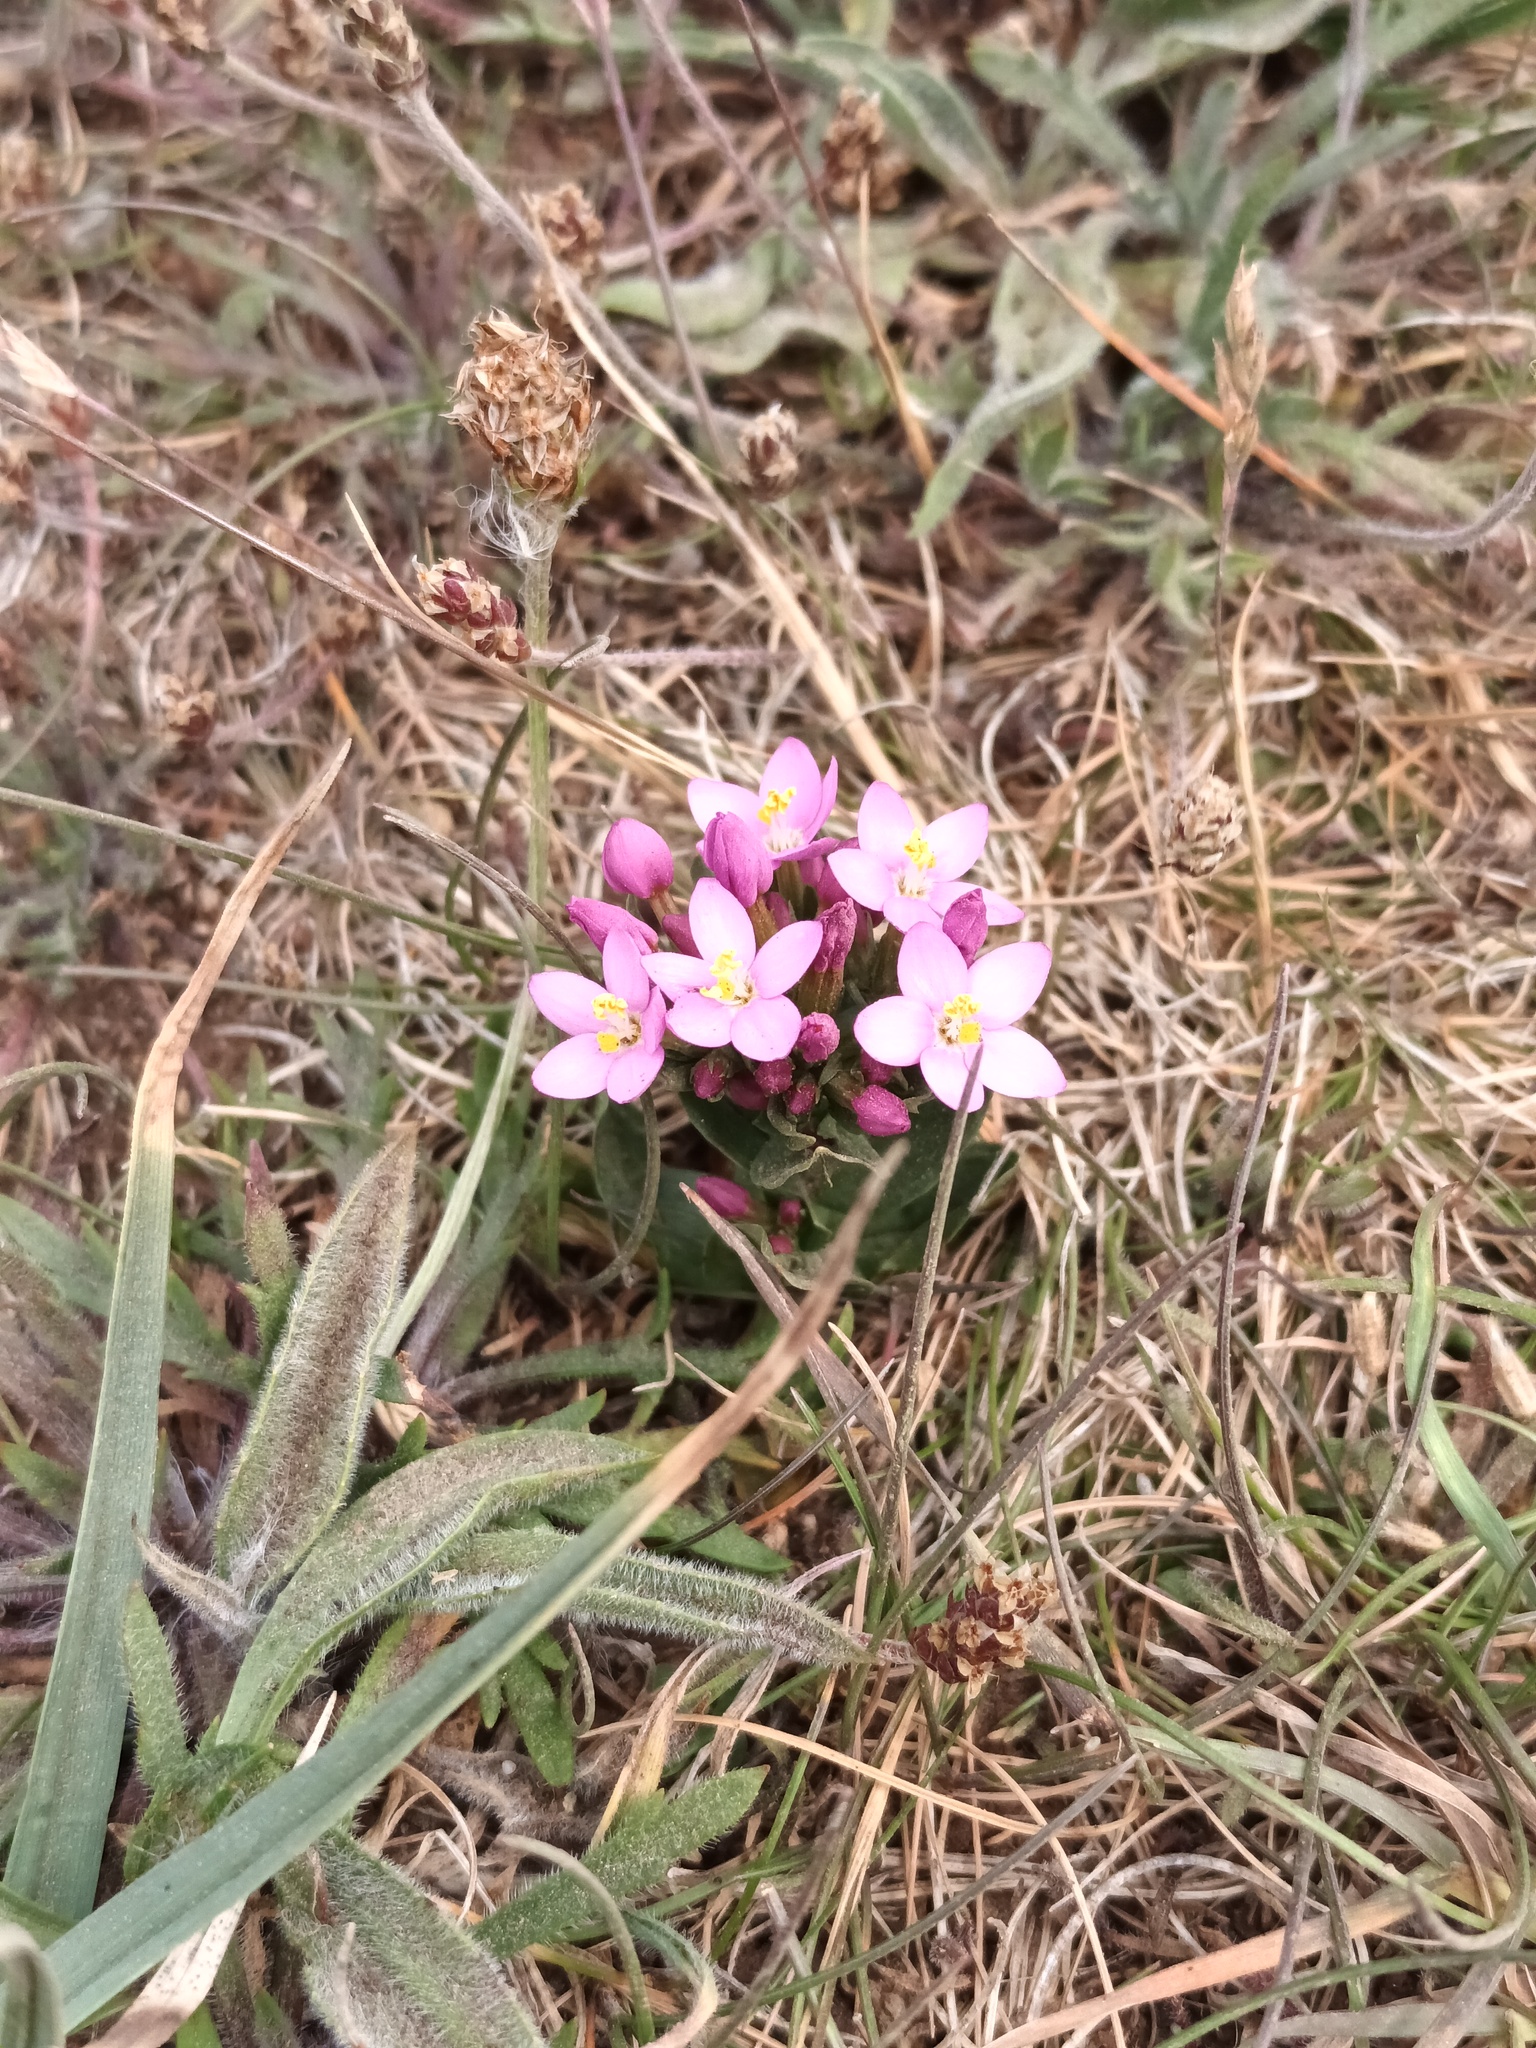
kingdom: Plantae
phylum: Tracheophyta
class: Magnoliopsida
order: Gentianales
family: Gentianaceae
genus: Centaurium
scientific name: Centaurium erythraea
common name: Common centaury
